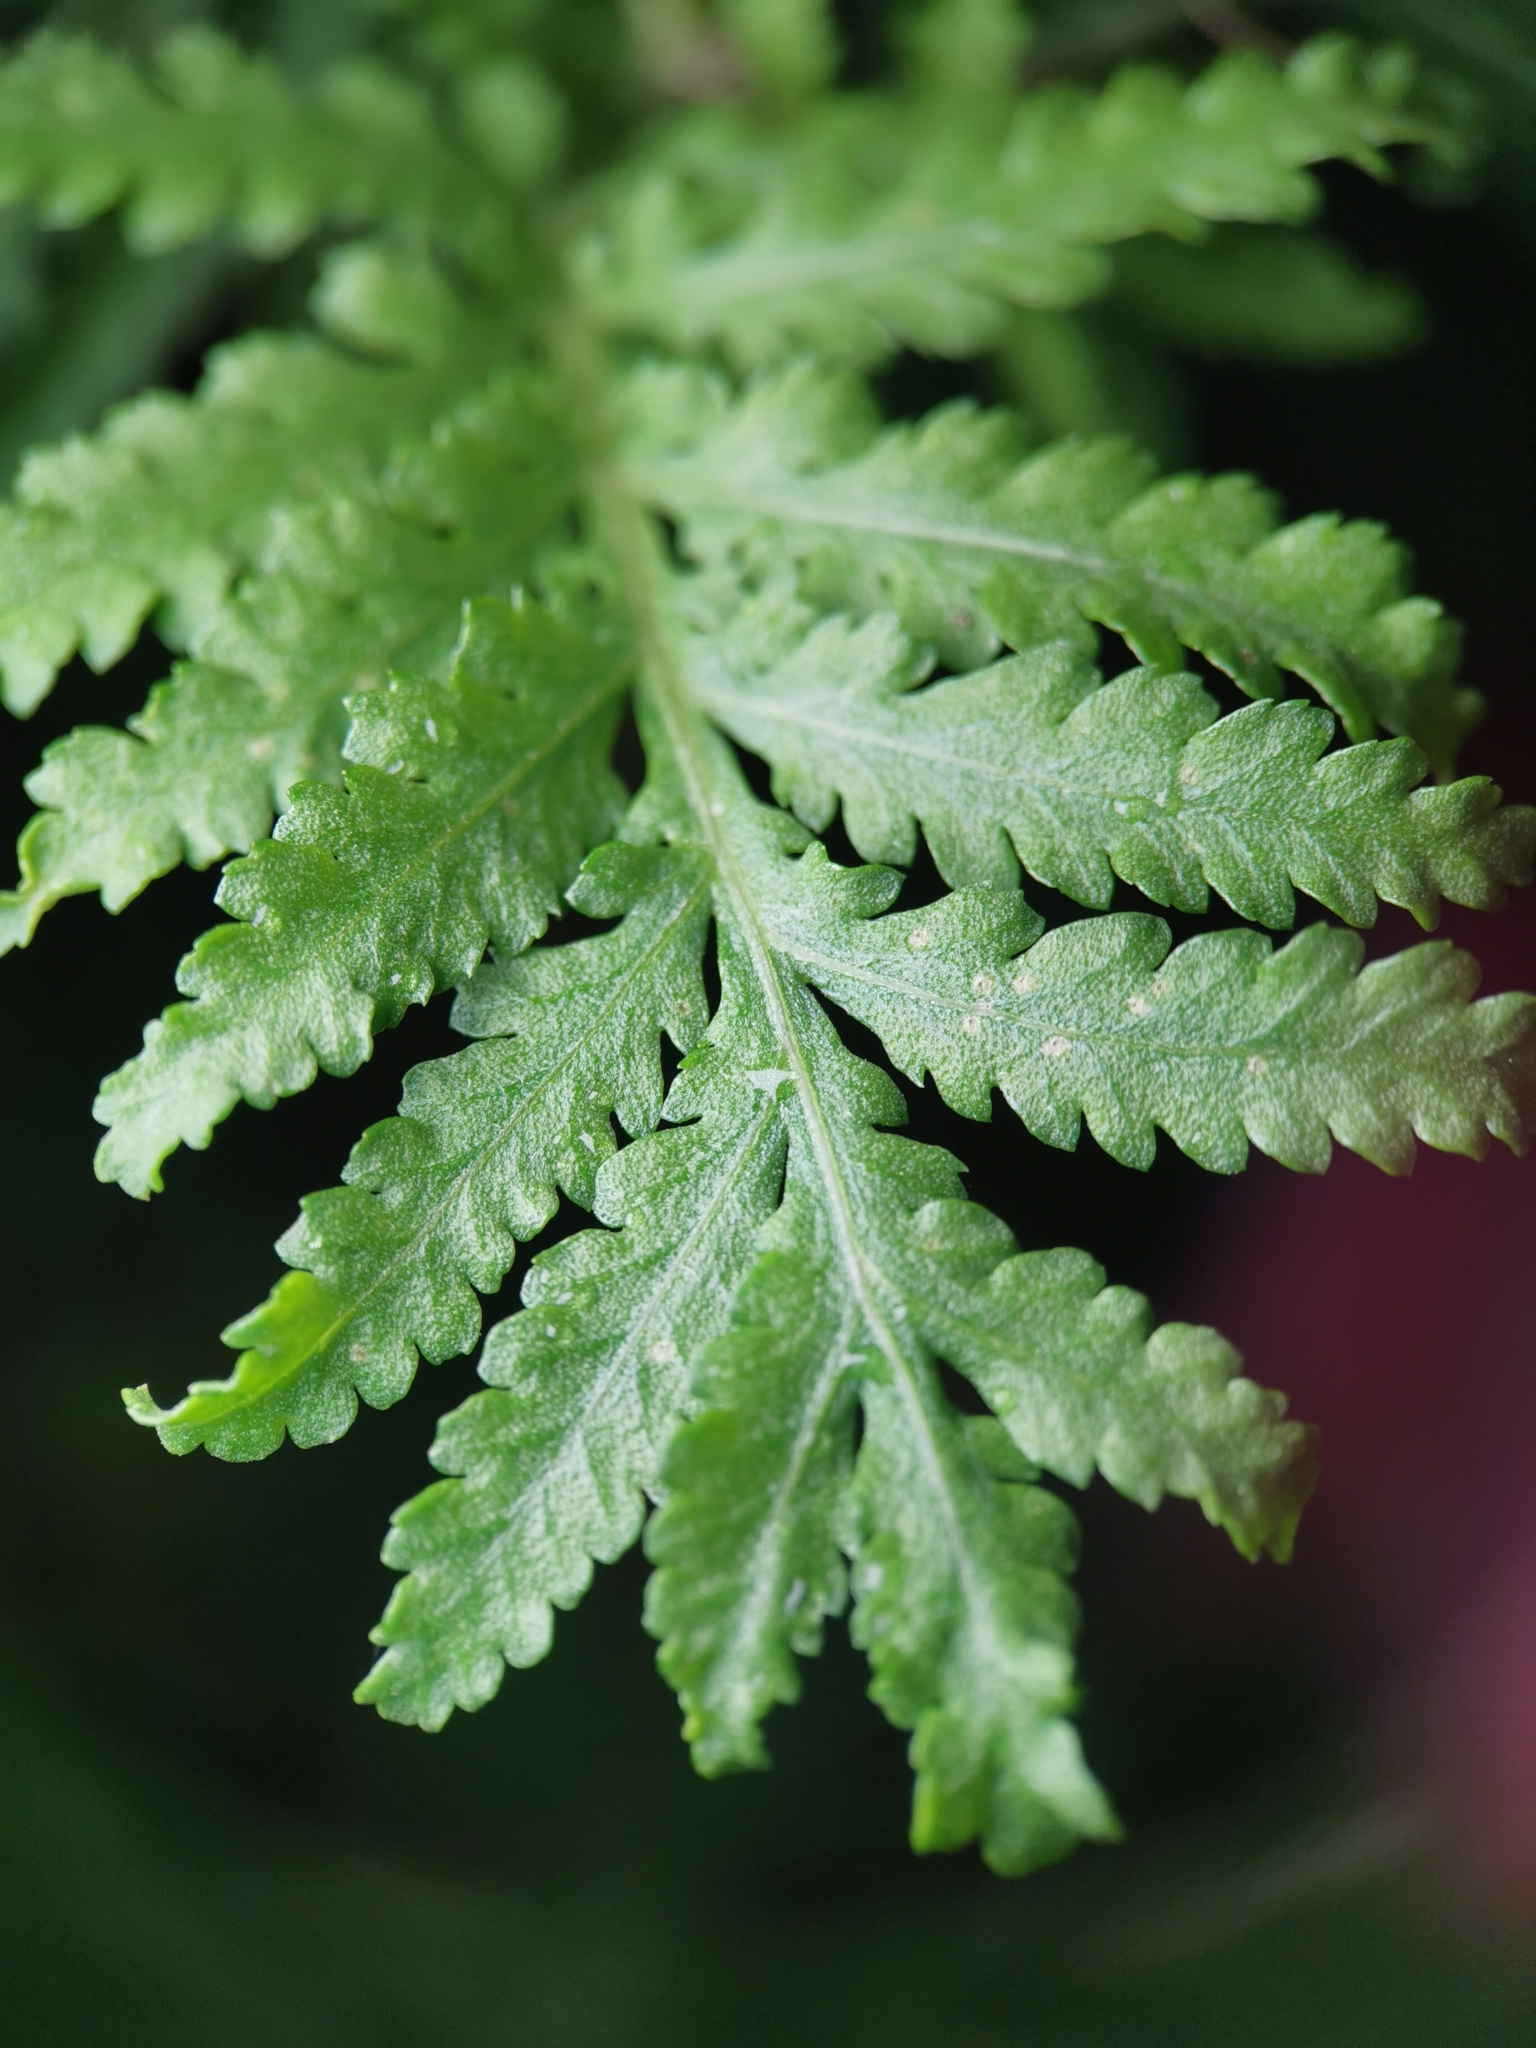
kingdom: Plantae
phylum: Tracheophyta
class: Magnoliopsida
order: Asterales
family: Asteraceae
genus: Tanacetum
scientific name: Tanacetum vulgare
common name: Common tansy
